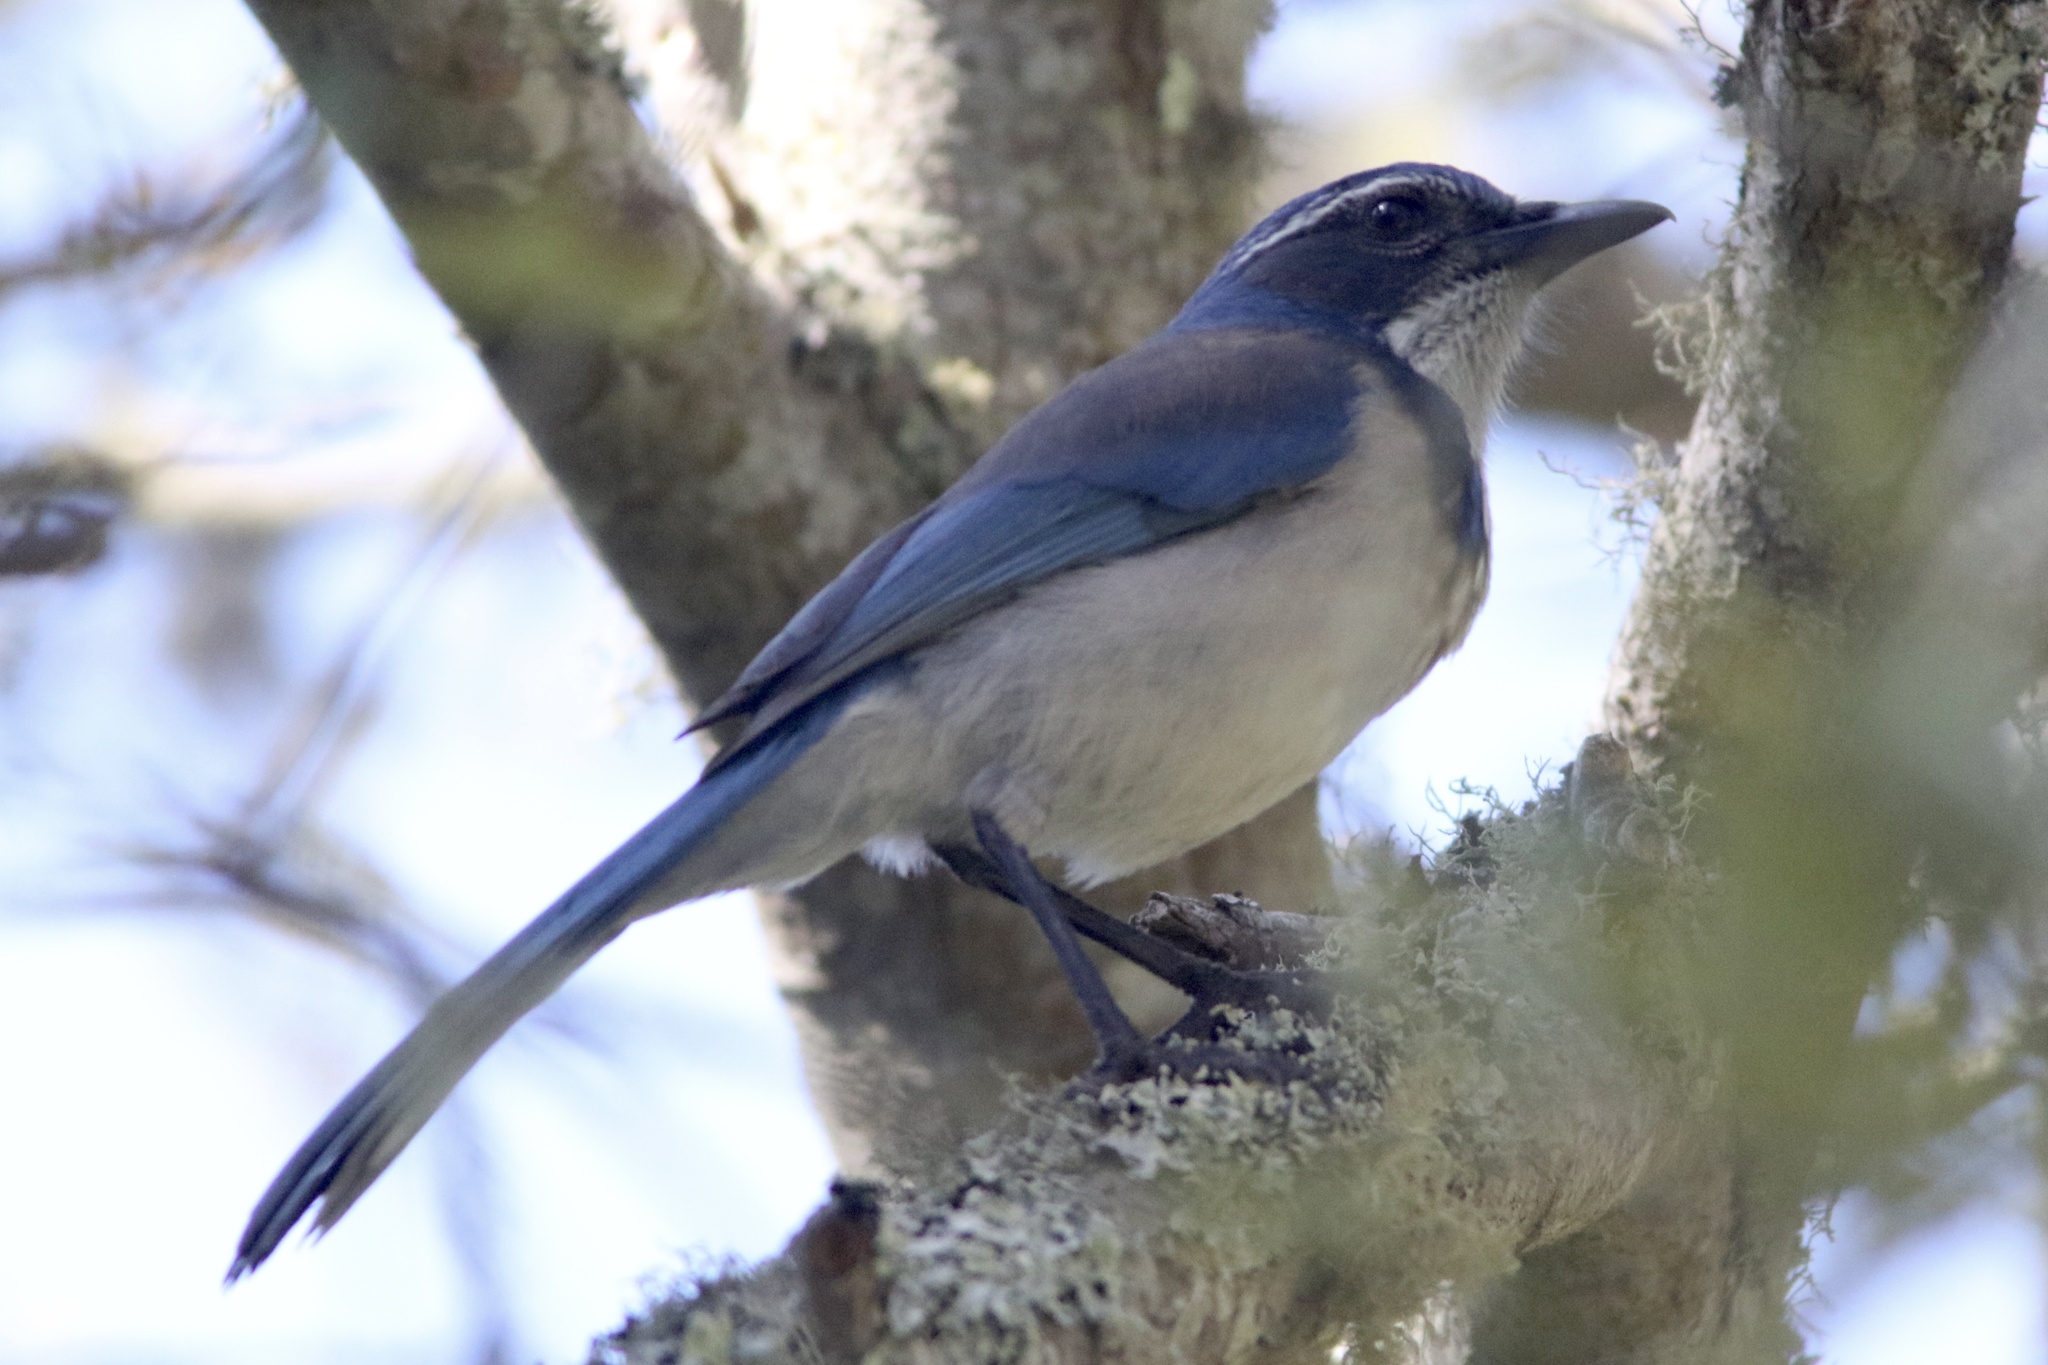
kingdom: Animalia
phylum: Chordata
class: Aves
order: Passeriformes
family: Corvidae
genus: Aphelocoma
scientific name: Aphelocoma californica
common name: California scrub-jay
